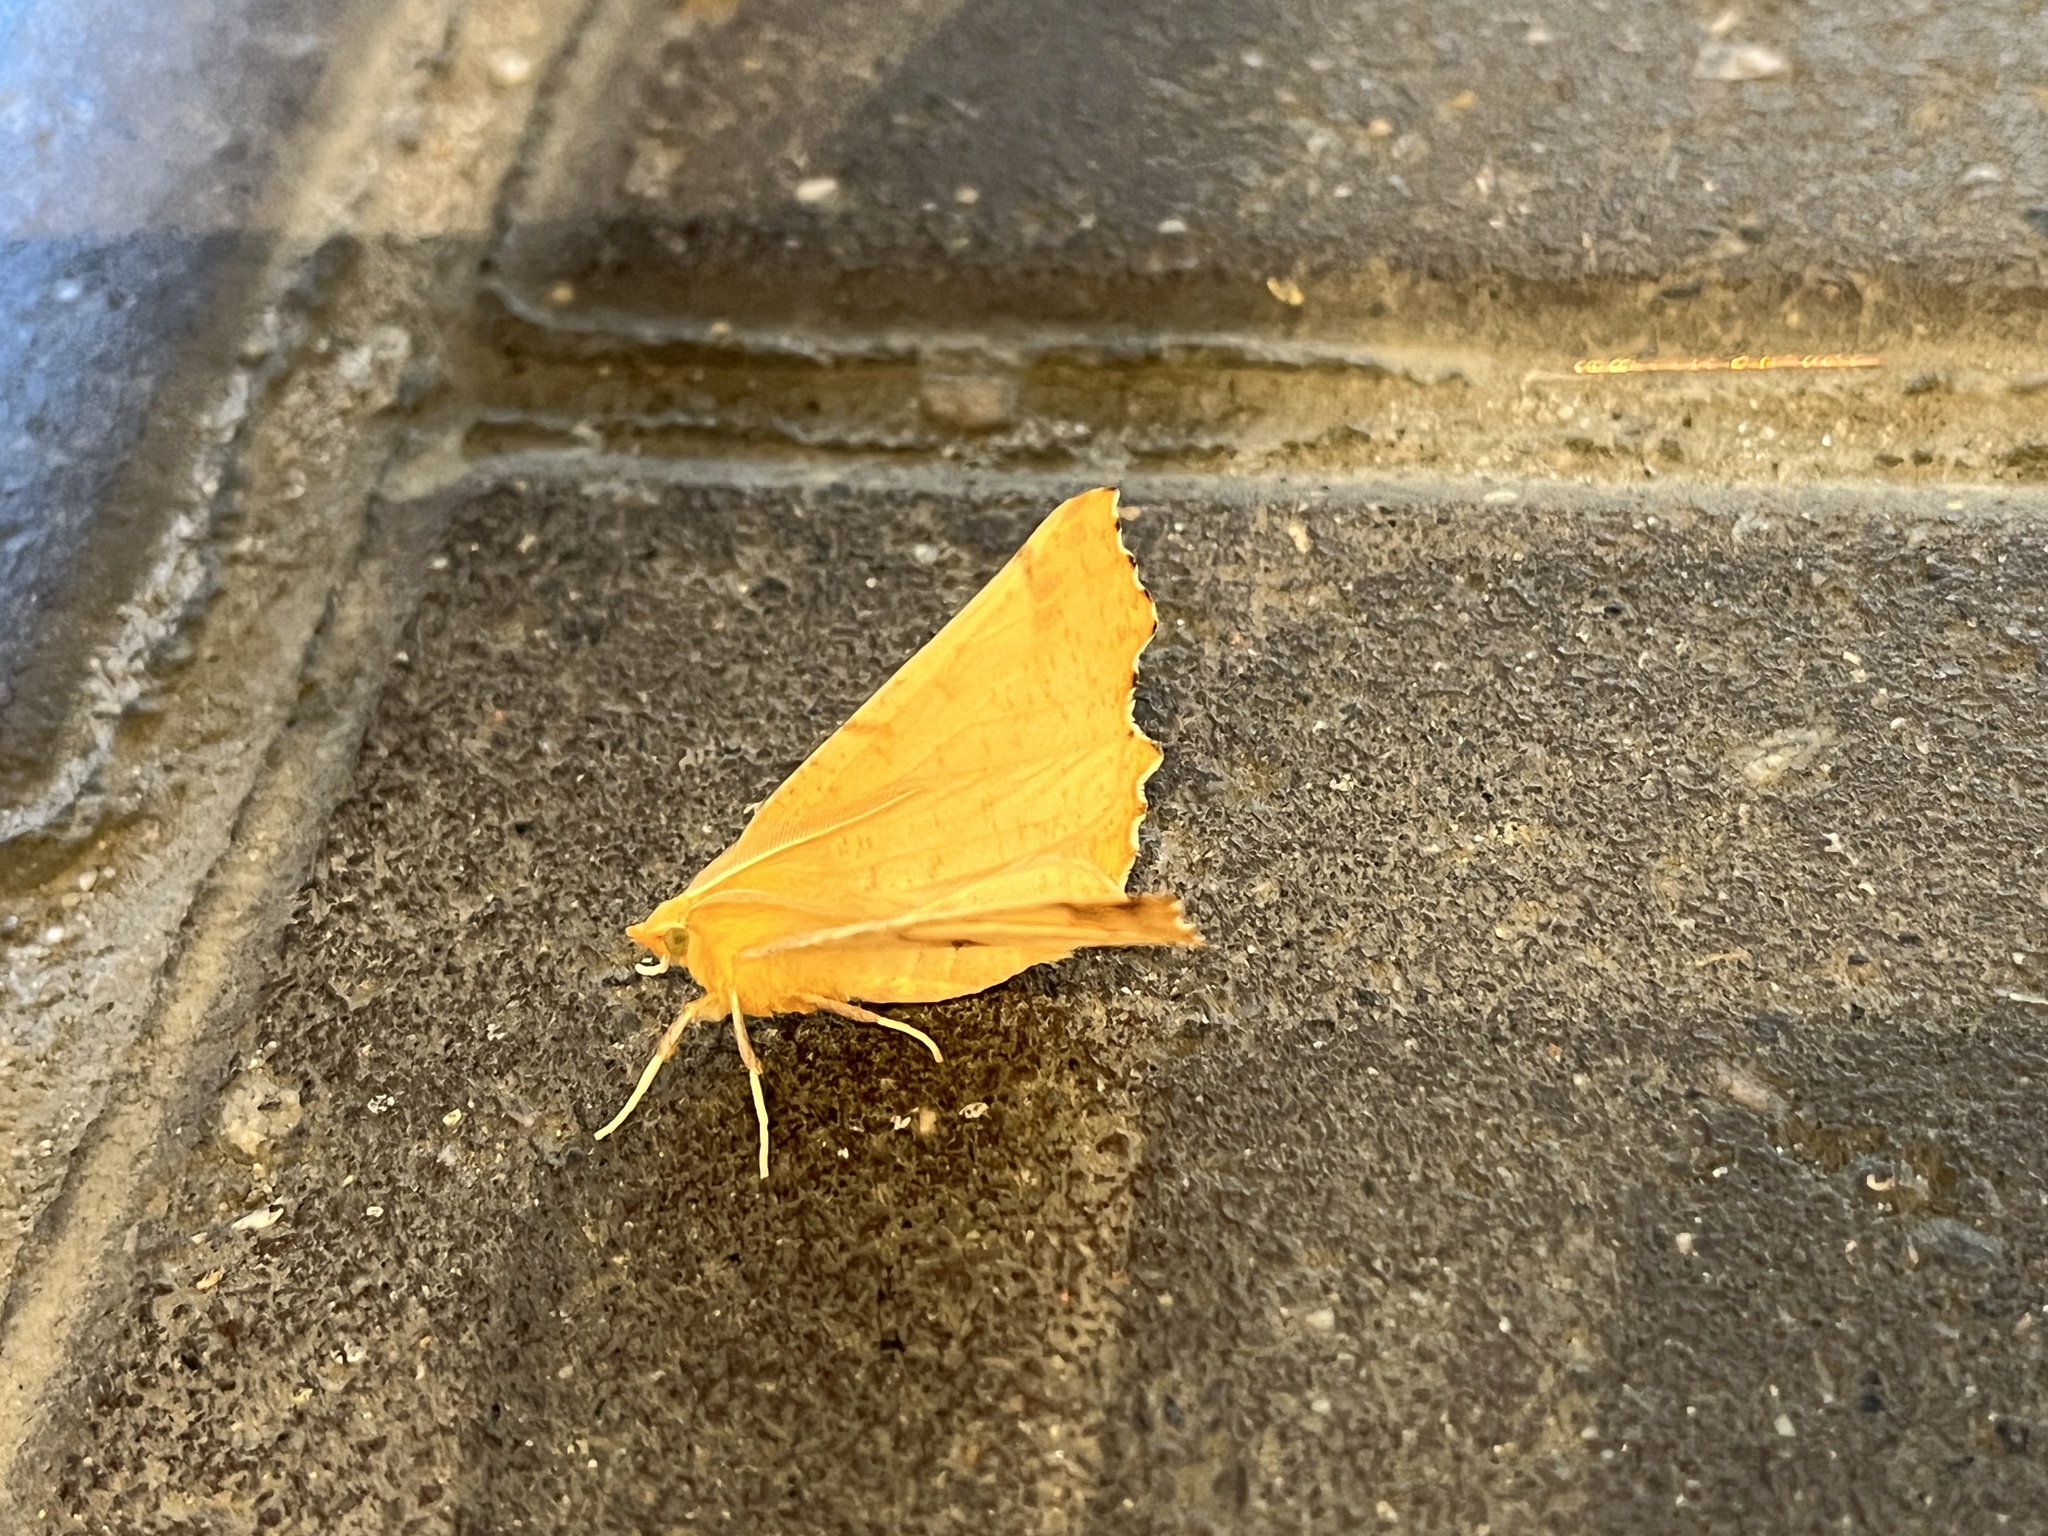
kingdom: Animalia
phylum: Arthropoda
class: Insecta
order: Lepidoptera
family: Geometridae
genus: Ennomos
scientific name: Ennomos autumnaria
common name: Large thorn
